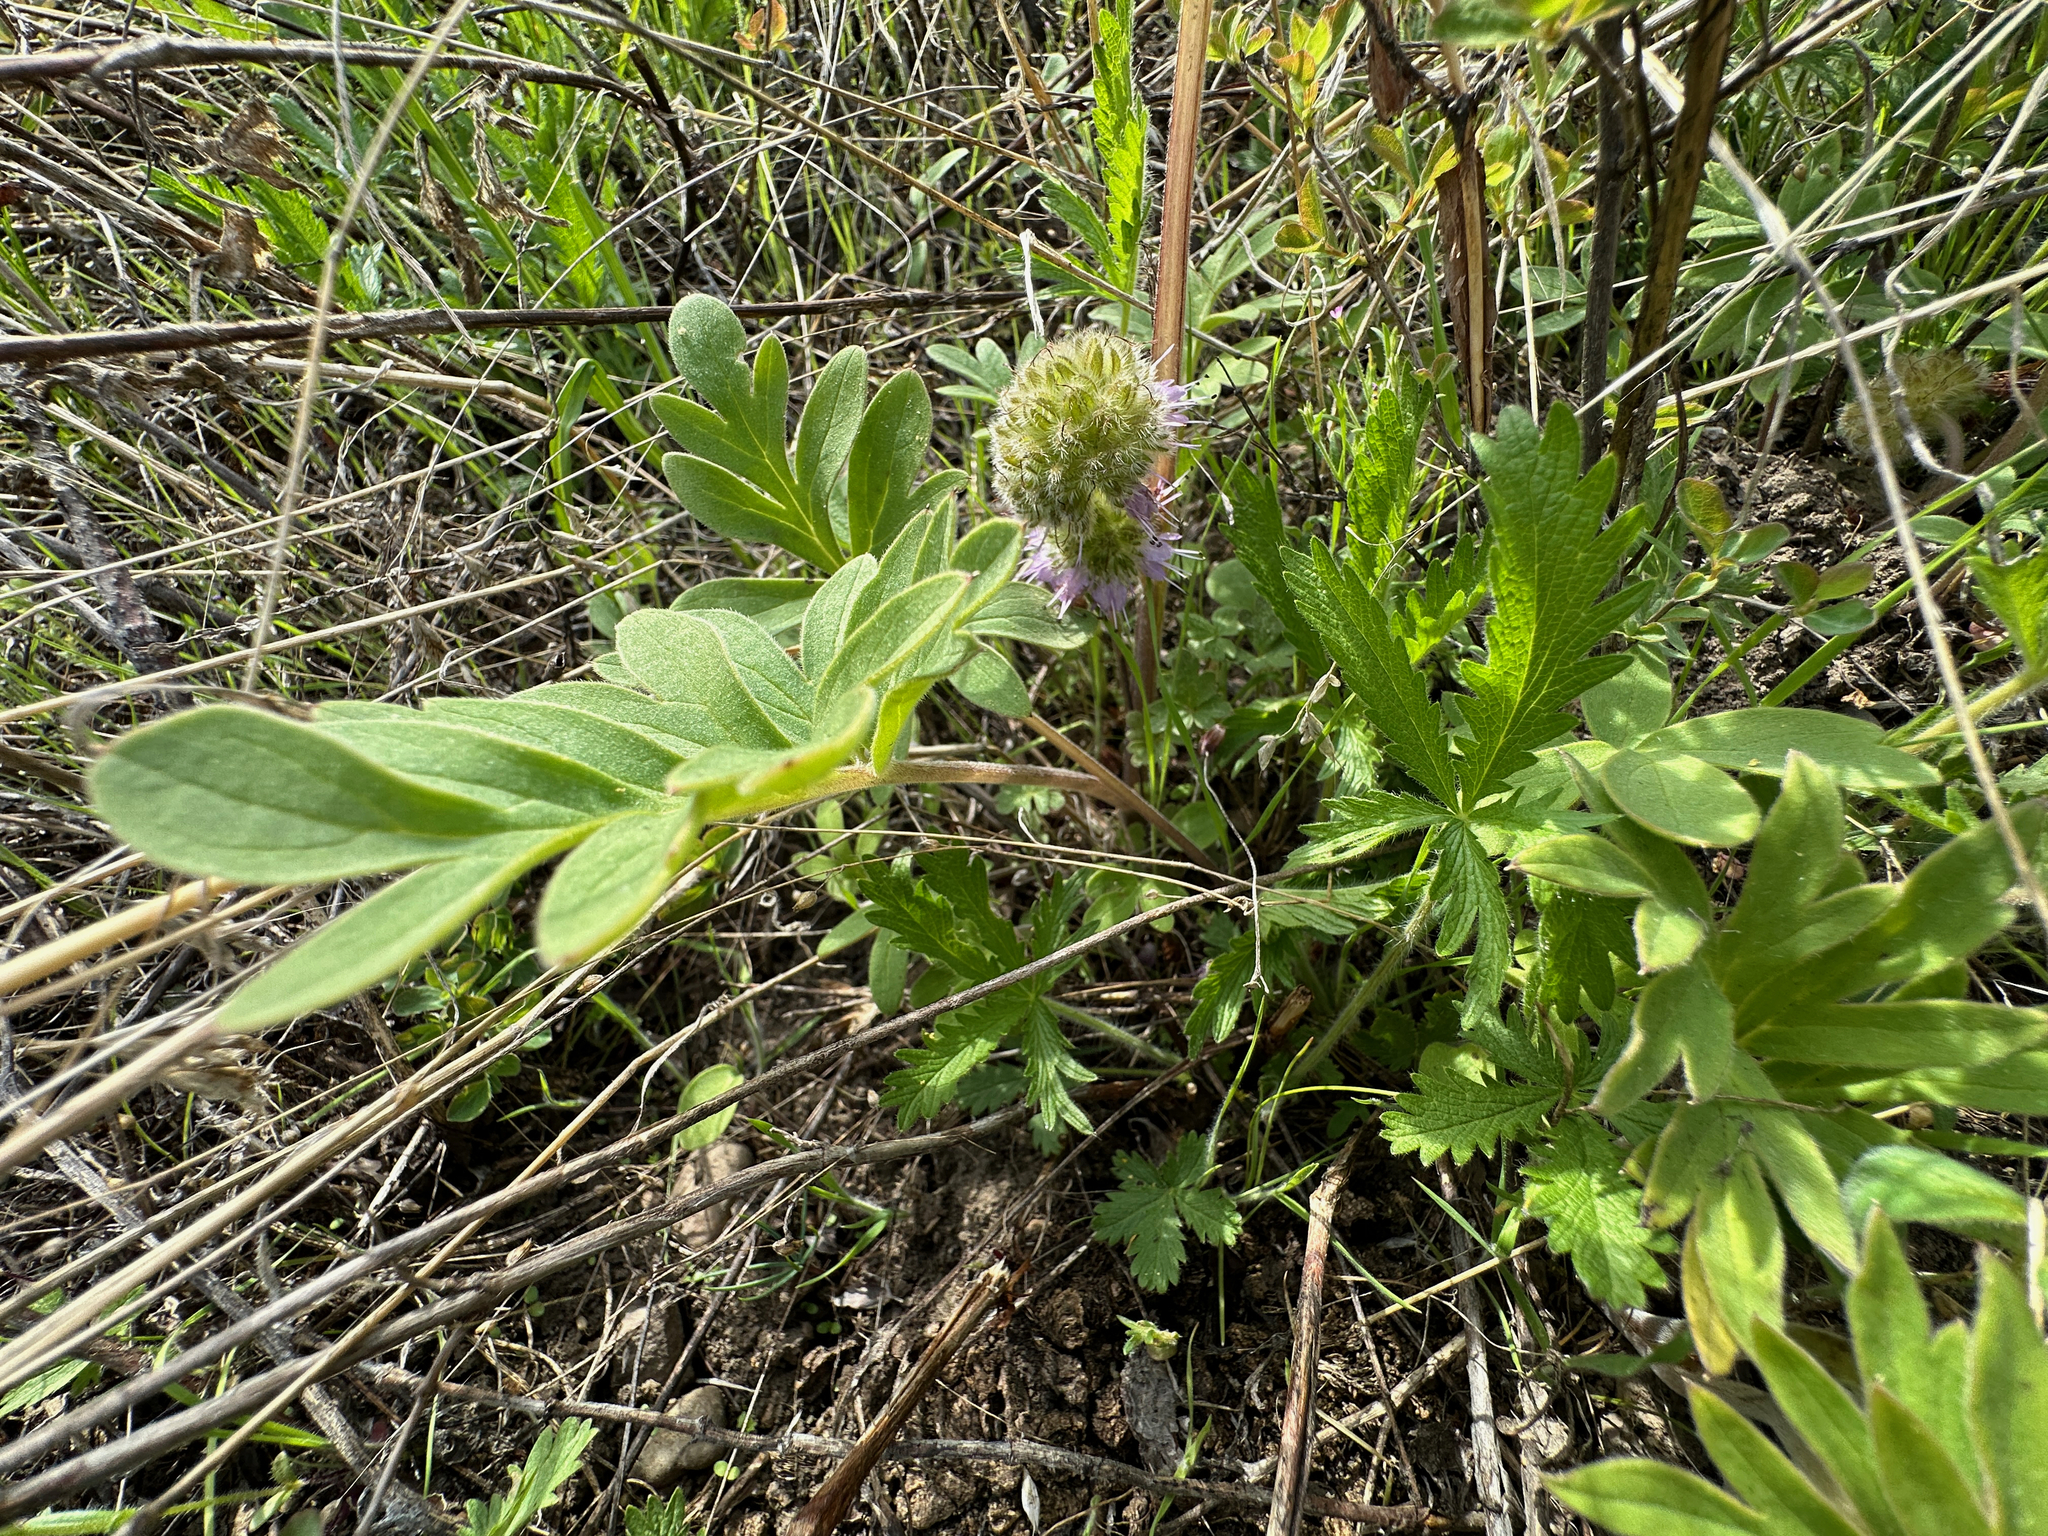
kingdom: Plantae
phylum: Tracheophyta
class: Magnoliopsida
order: Boraginales
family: Hydrophyllaceae
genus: Hydrophyllum
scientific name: Hydrophyllum capitatum
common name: Woollen-breeches
